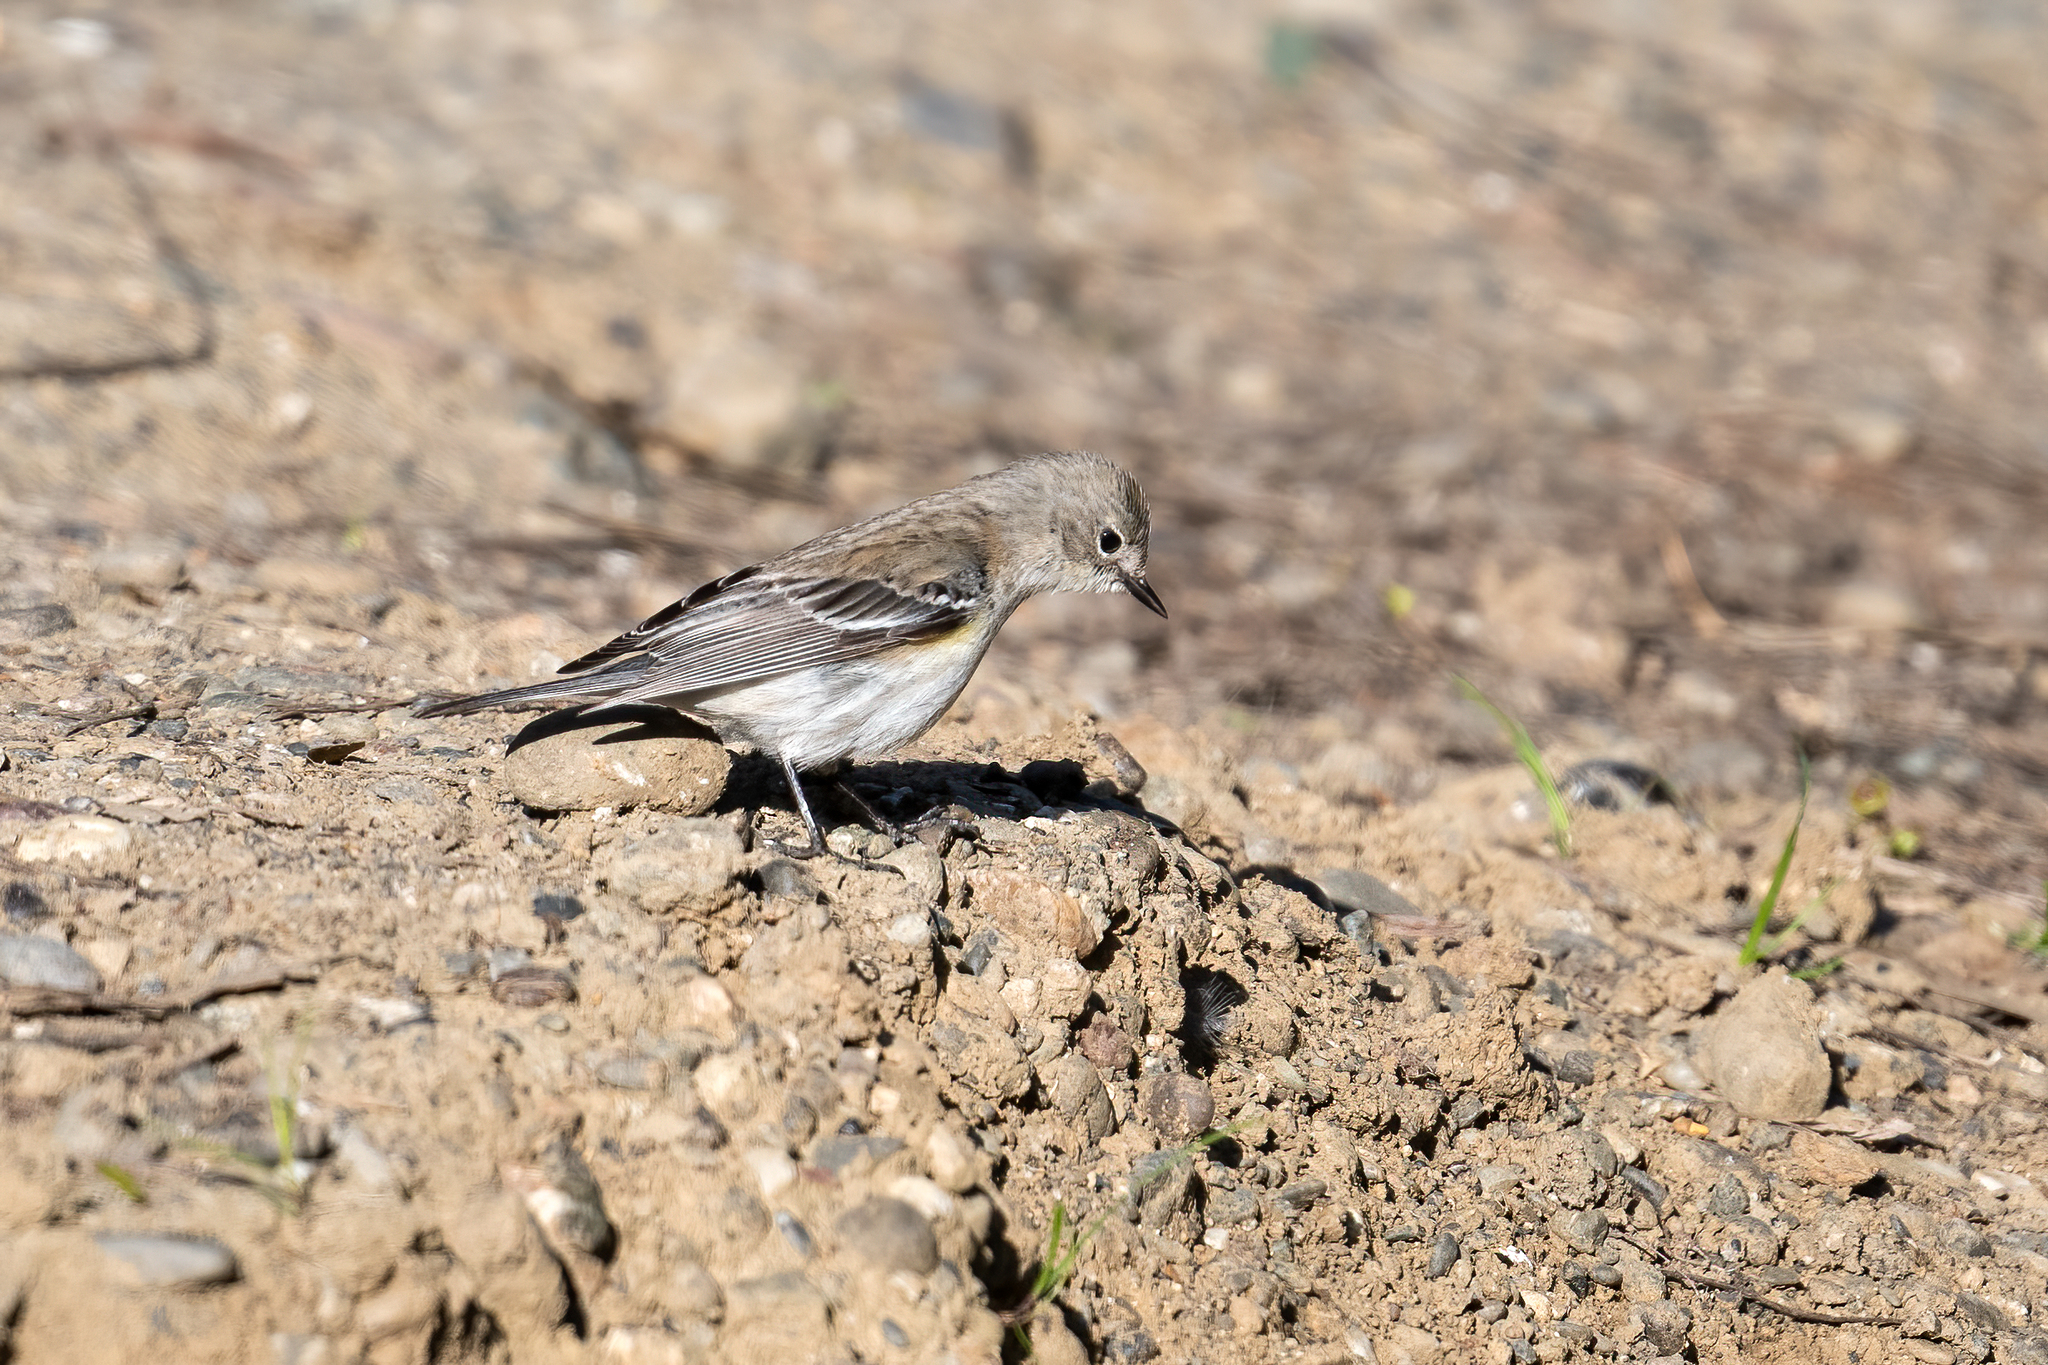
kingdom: Animalia
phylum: Chordata
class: Aves
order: Passeriformes
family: Parulidae
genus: Setophaga
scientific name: Setophaga coronata
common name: Myrtle warbler
